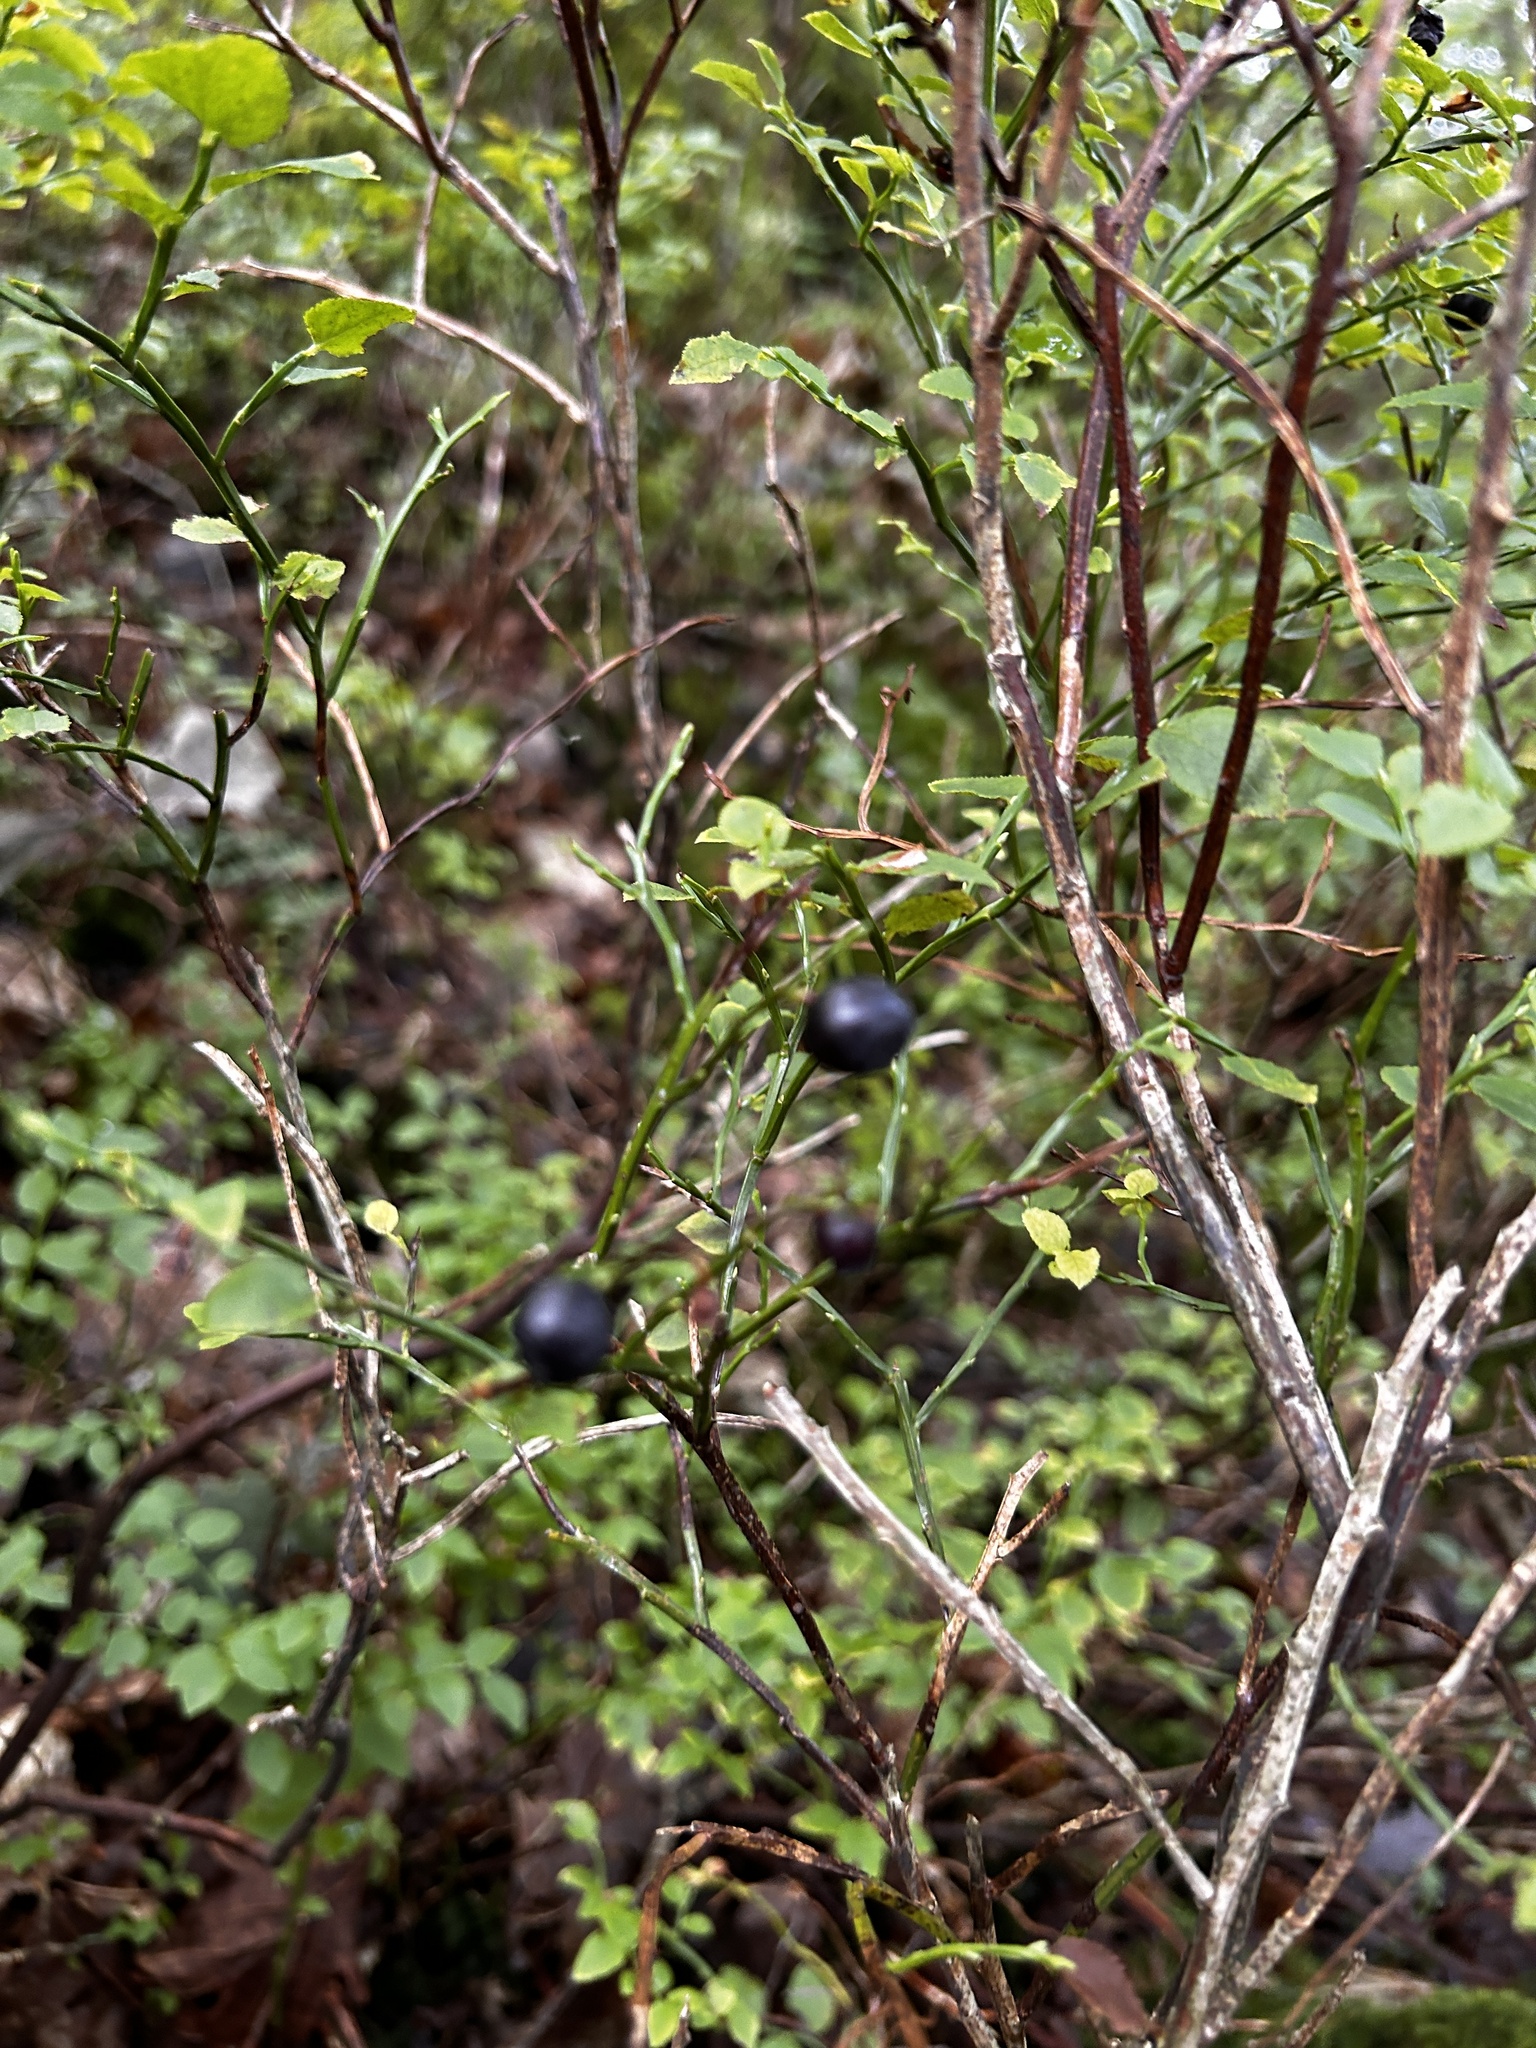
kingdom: Plantae
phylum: Tracheophyta
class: Magnoliopsida
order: Ericales
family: Ericaceae
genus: Vaccinium
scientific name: Vaccinium myrtillus
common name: Bilberry
